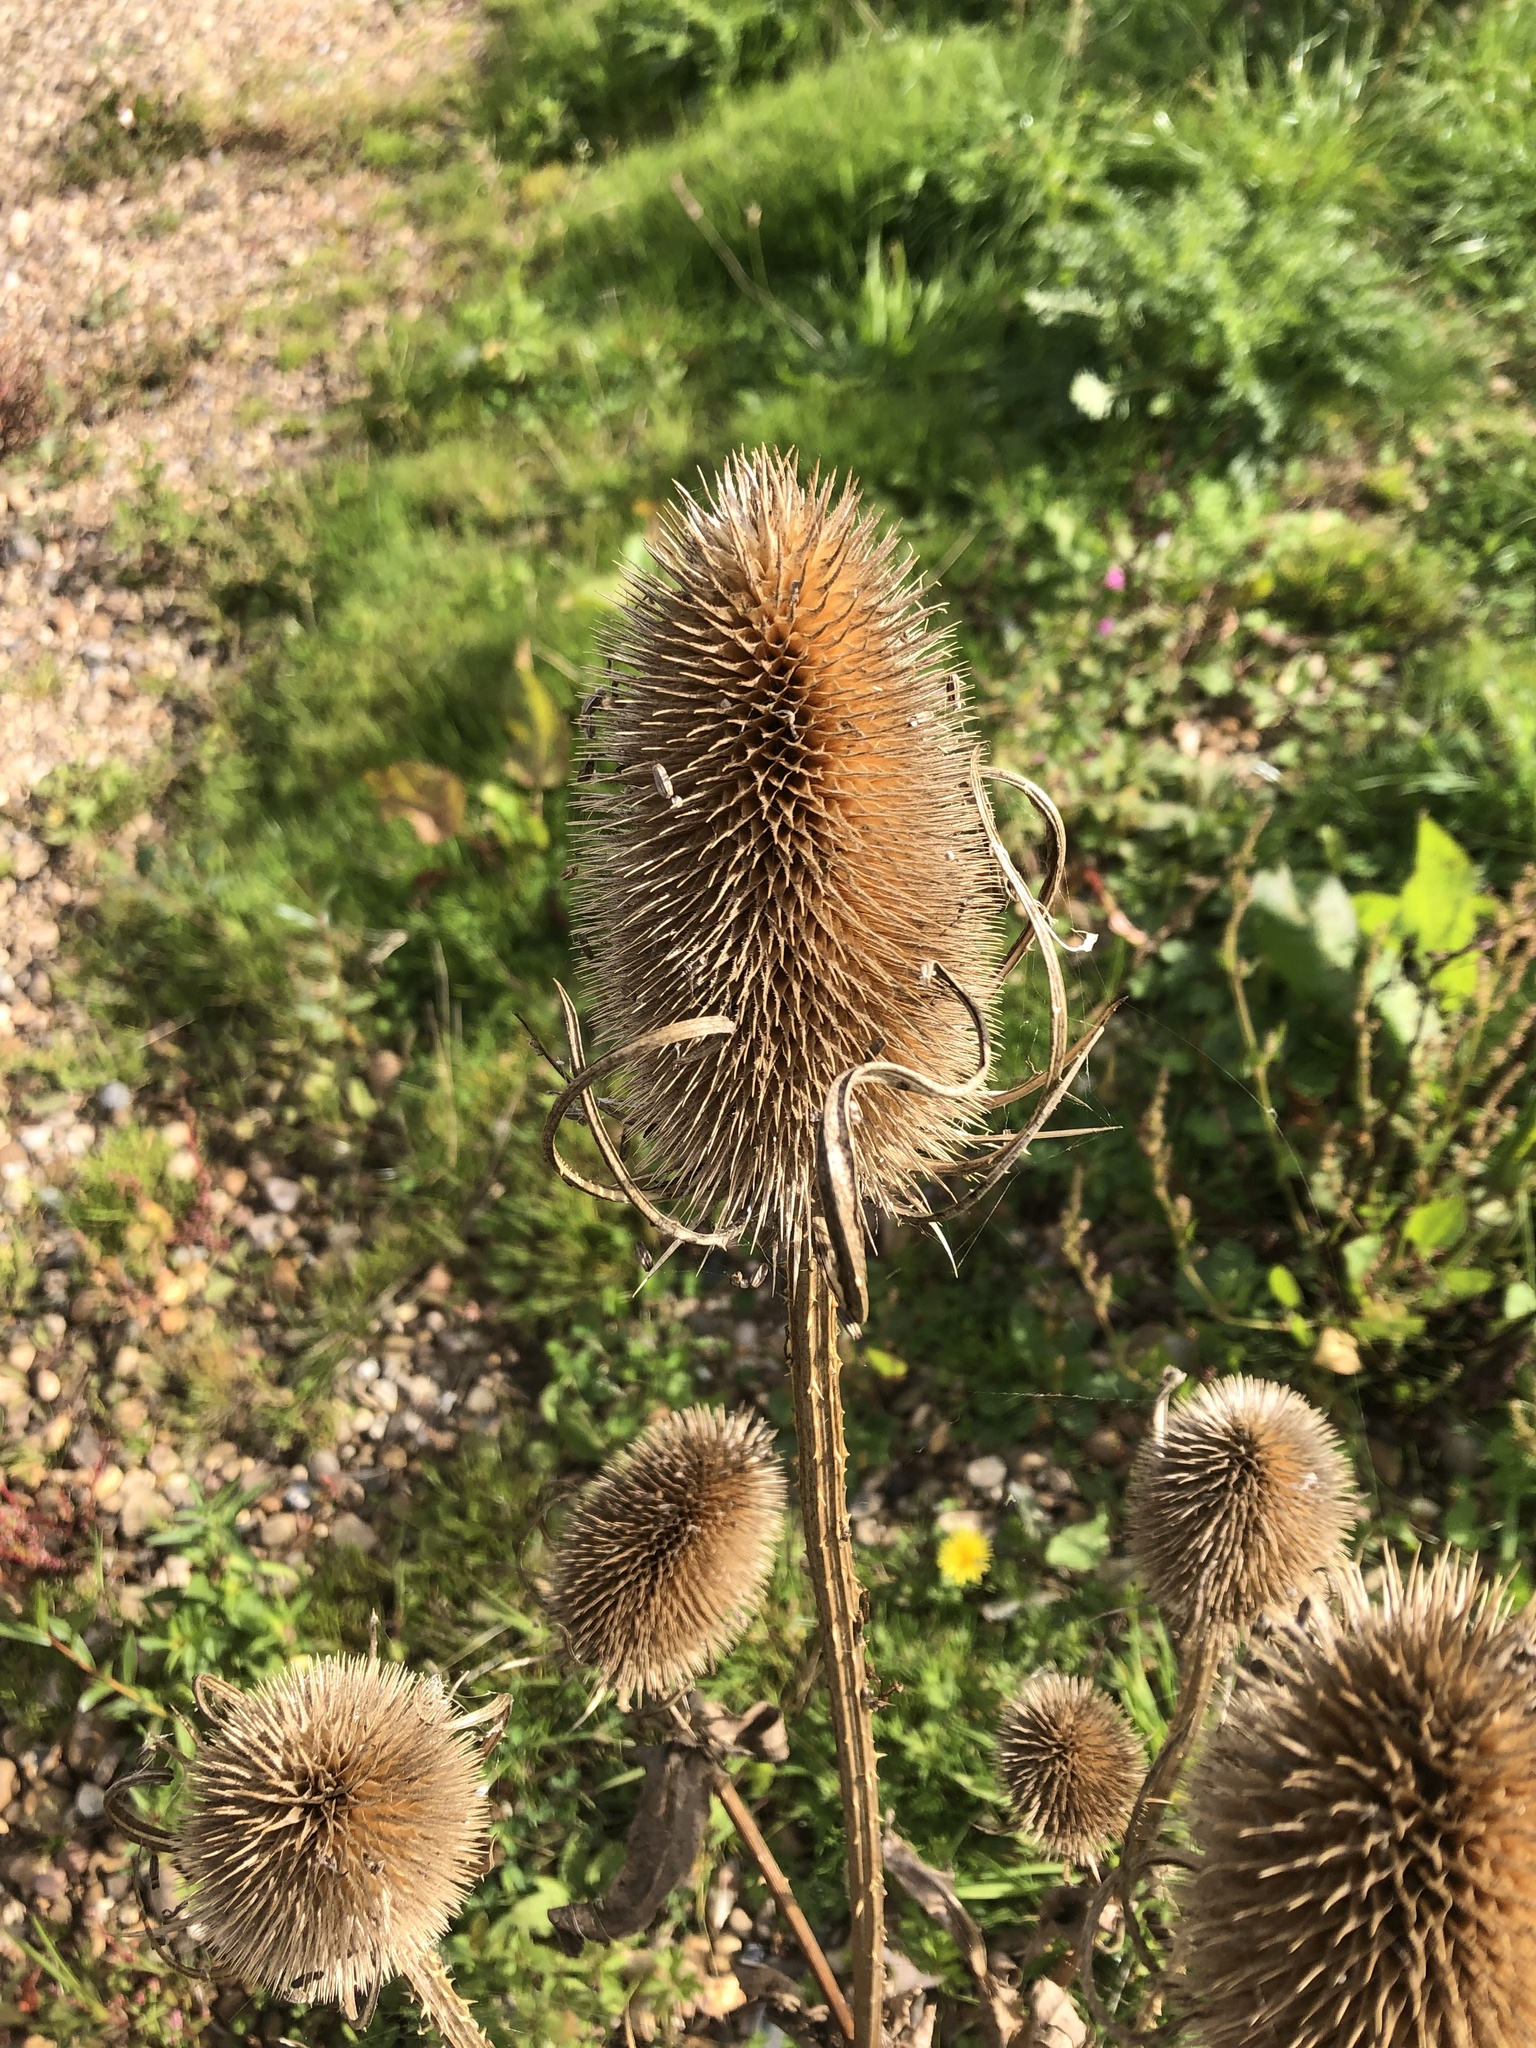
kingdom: Plantae
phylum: Tracheophyta
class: Magnoliopsida
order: Dipsacales
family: Caprifoliaceae
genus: Dipsacus
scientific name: Dipsacus fullonum
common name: Teasel
